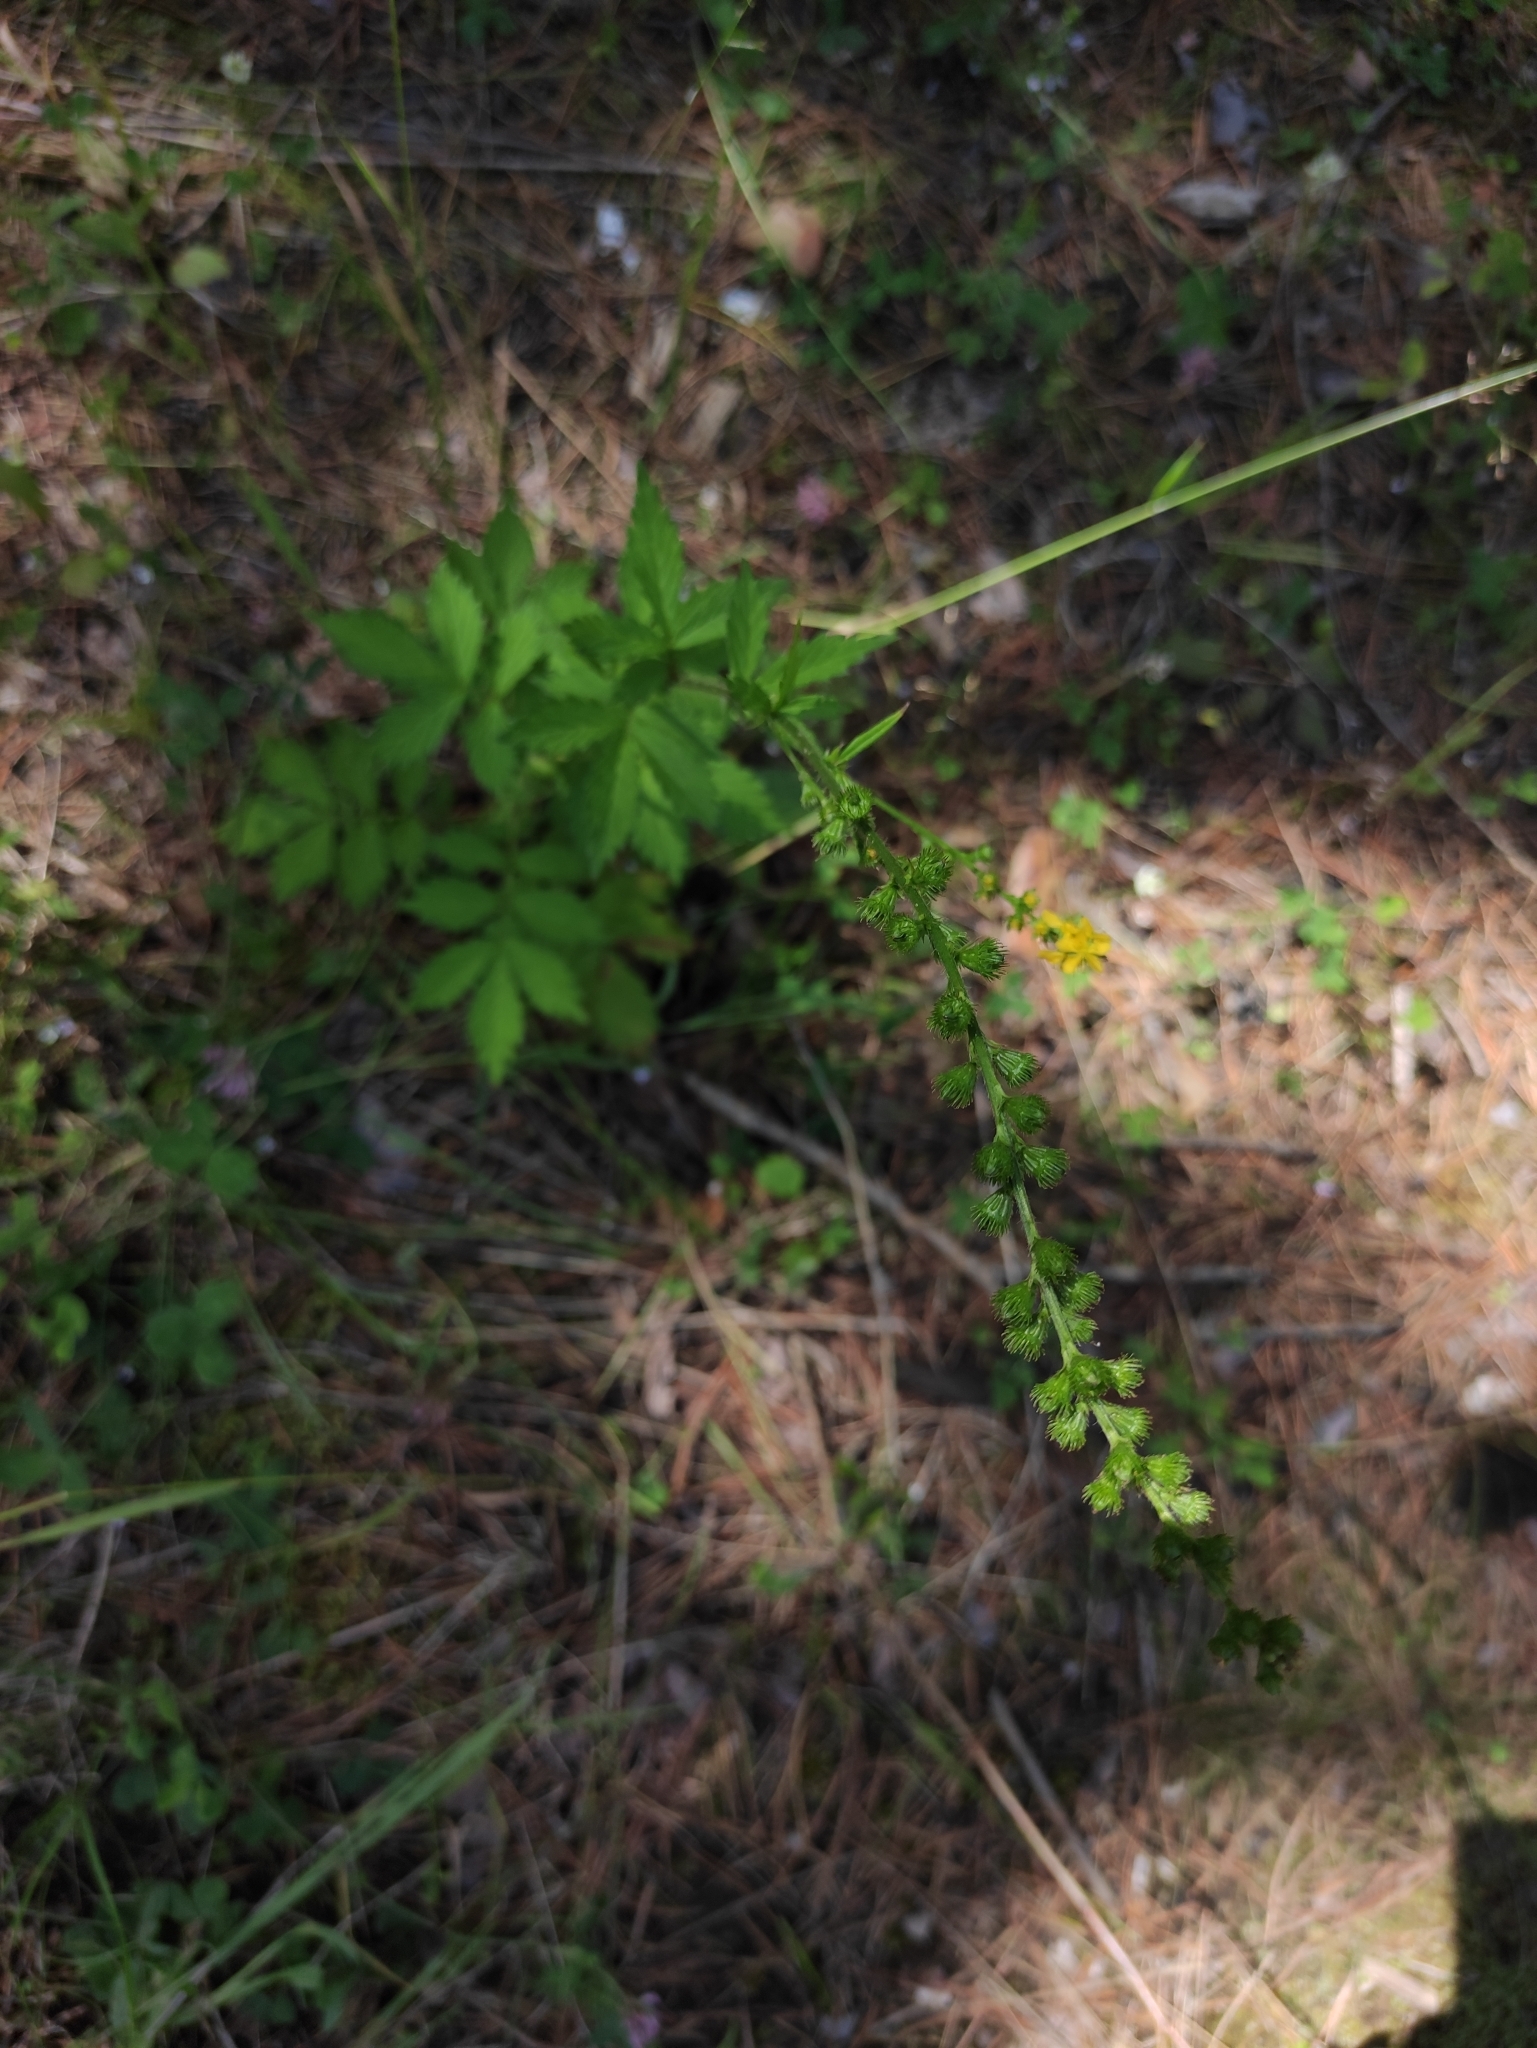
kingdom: Plantae
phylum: Tracheophyta
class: Magnoliopsida
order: Rosales
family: Rosaceae
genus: Agrimonia
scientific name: Agrimonia pilosa
